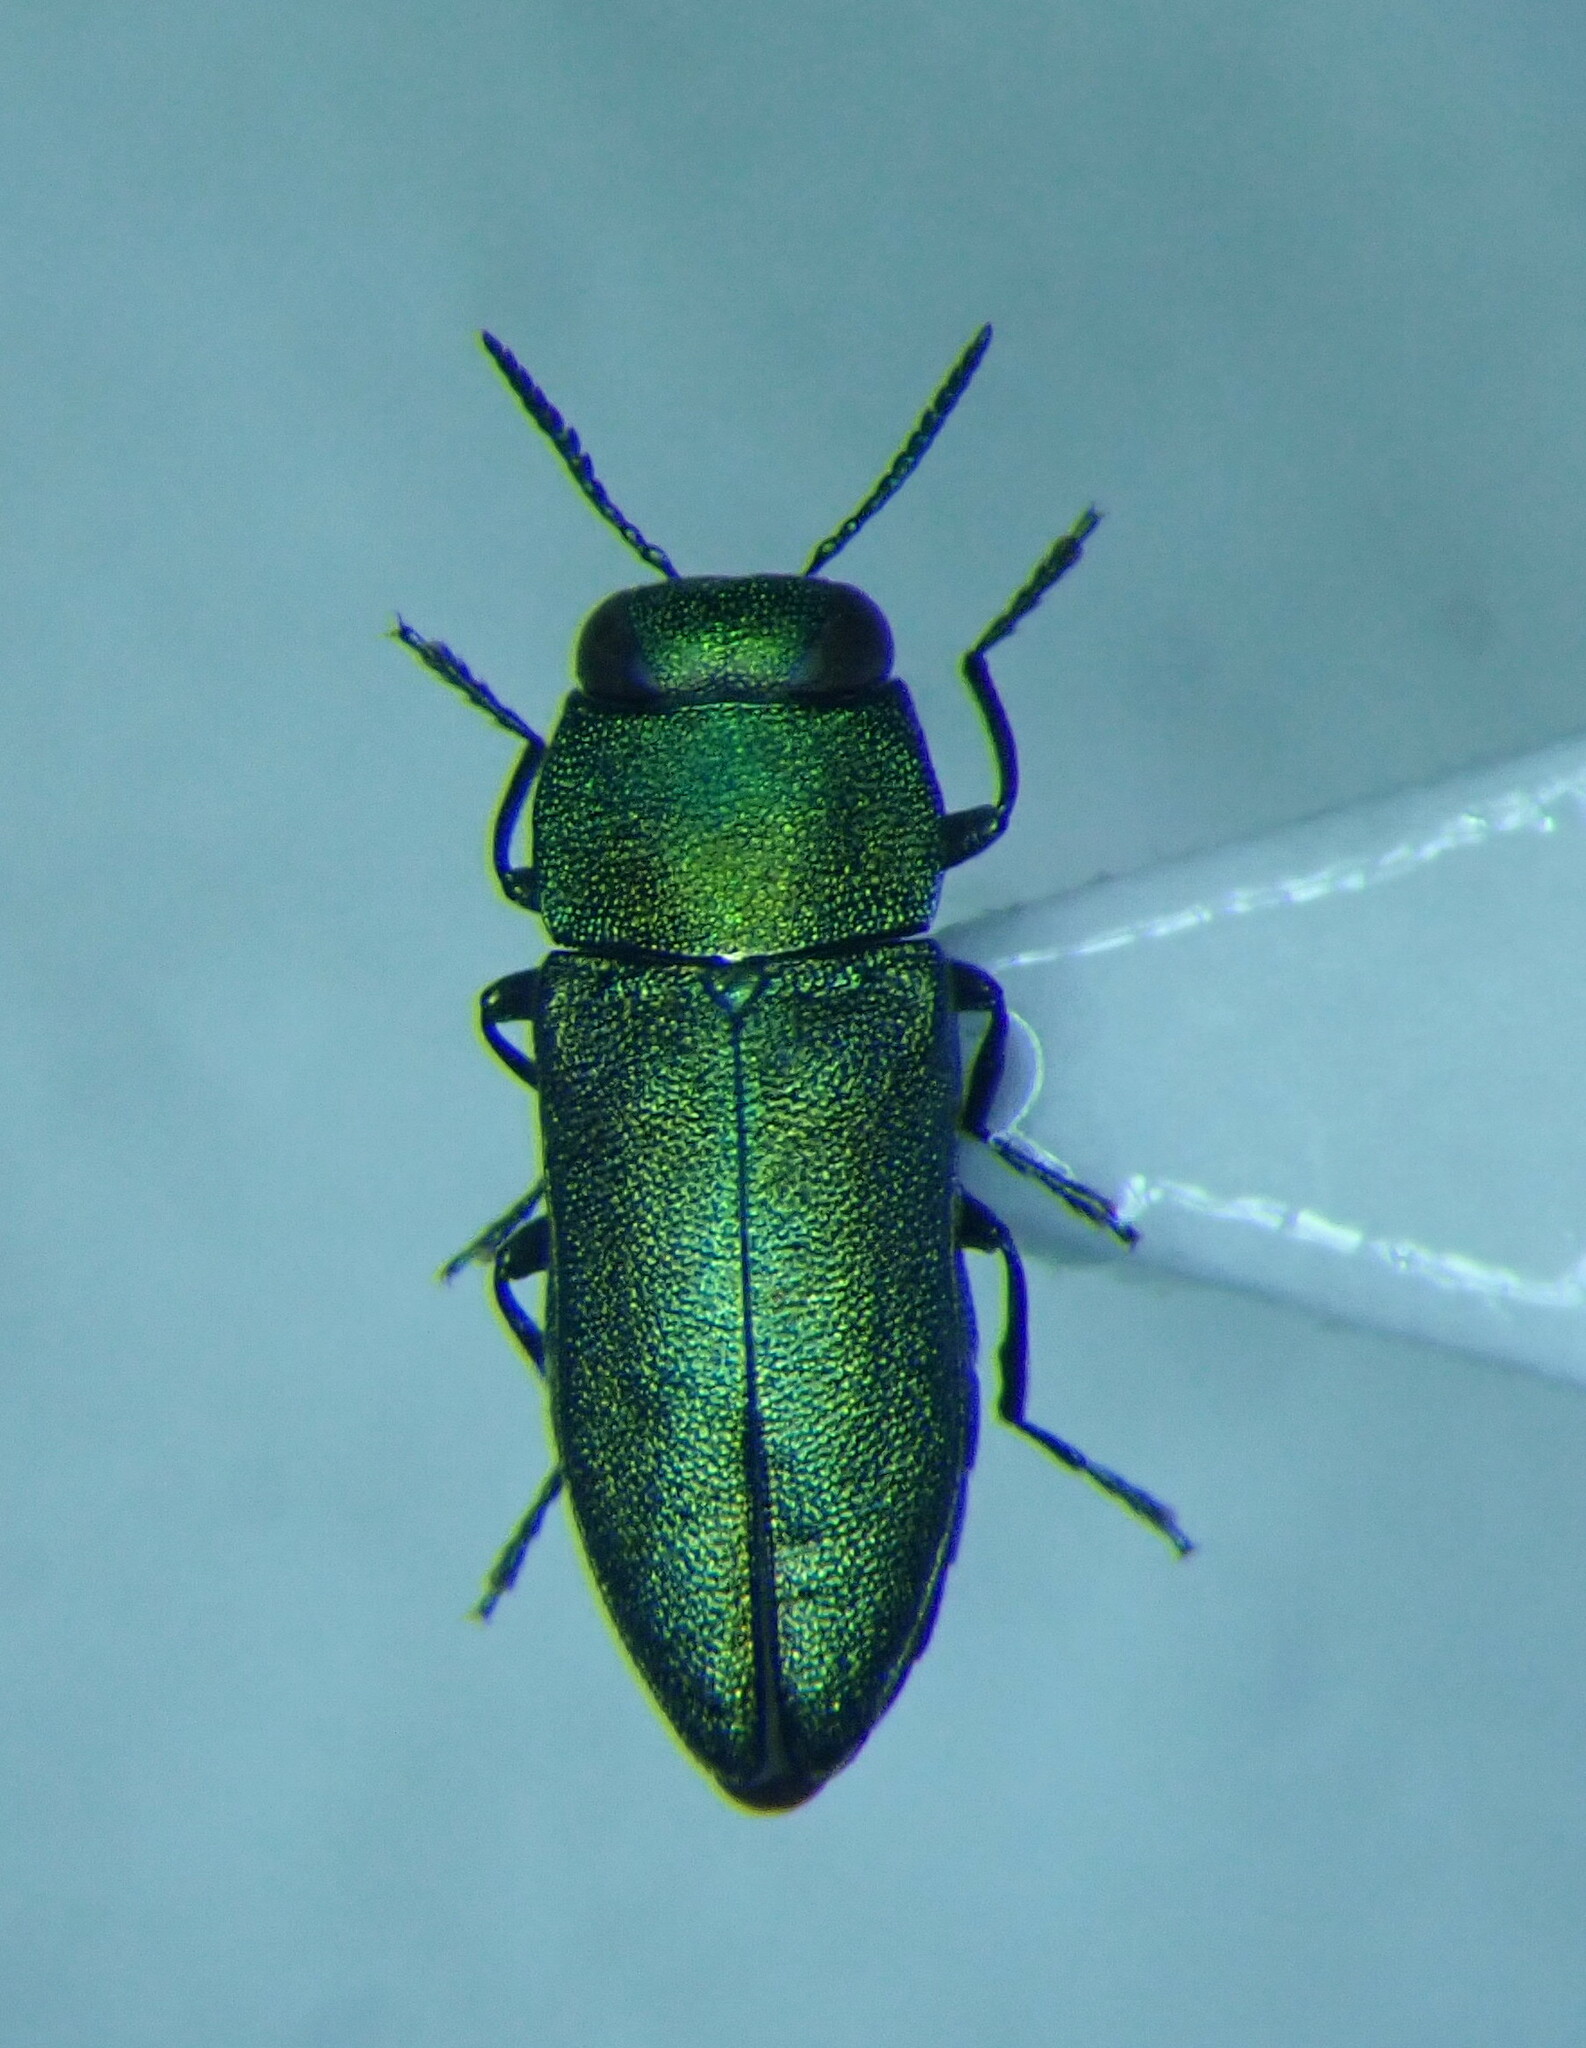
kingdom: Animalia
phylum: Arthropoda
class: Insecta
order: Coleoptera
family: Buprestidae
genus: Anthaxia
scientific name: Anthaxia millefolii
